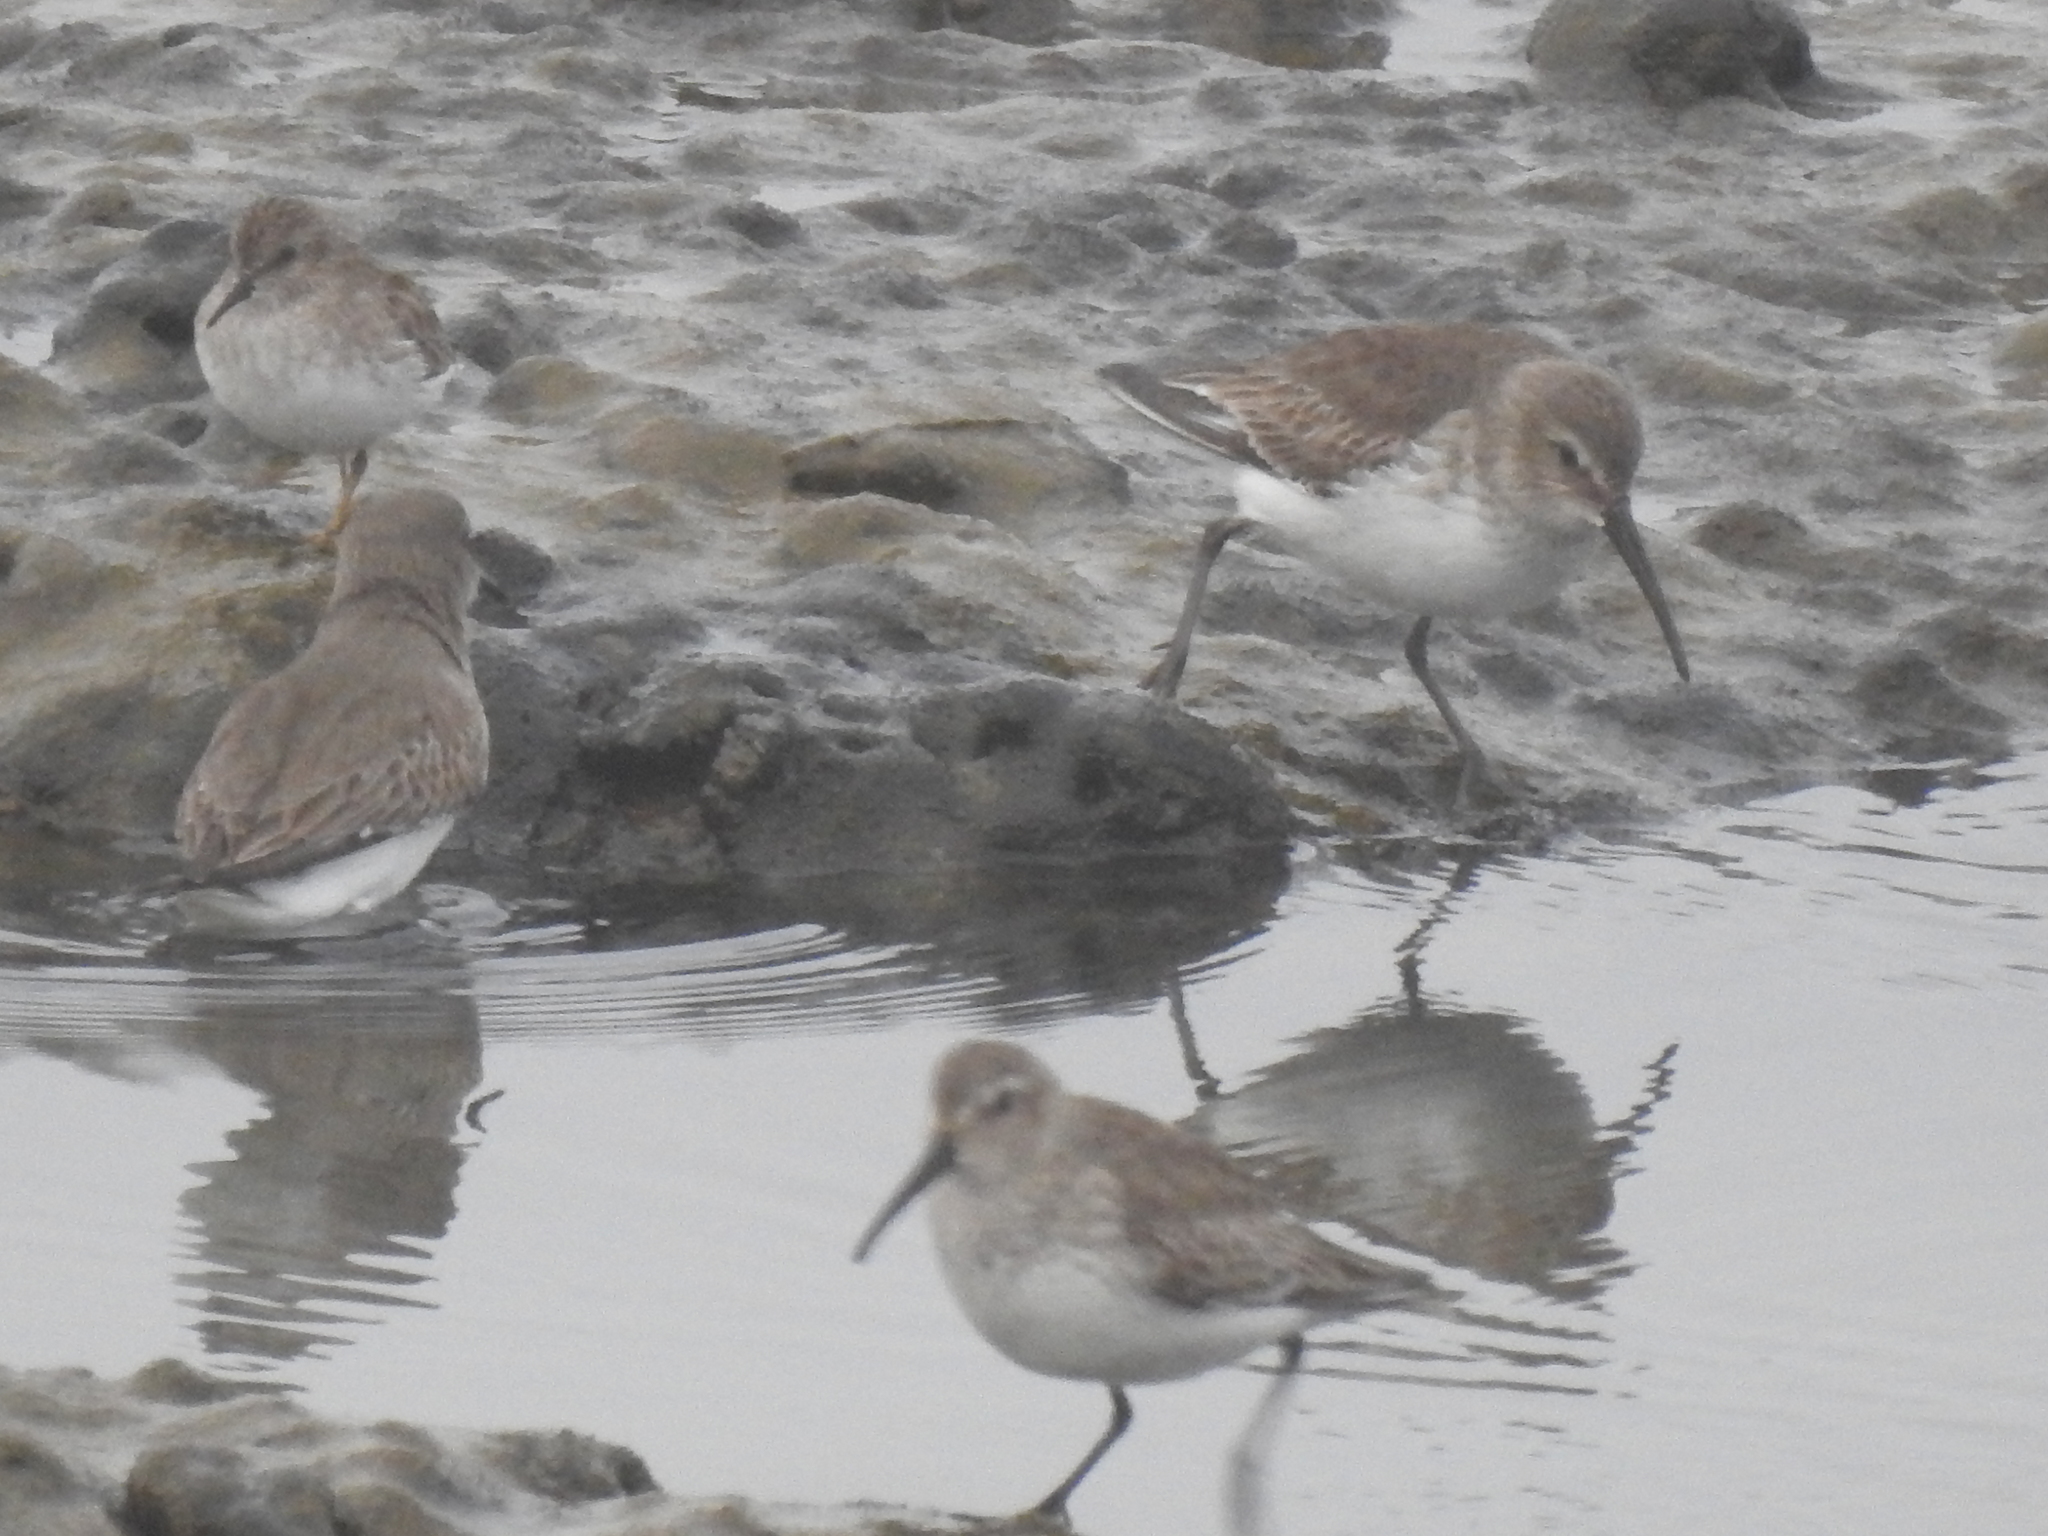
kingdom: Animalia
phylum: Chordata
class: Aves
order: Charadriiformes
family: Scolopacidae
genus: Calidris
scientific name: Calidris alpina
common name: Dunlin
